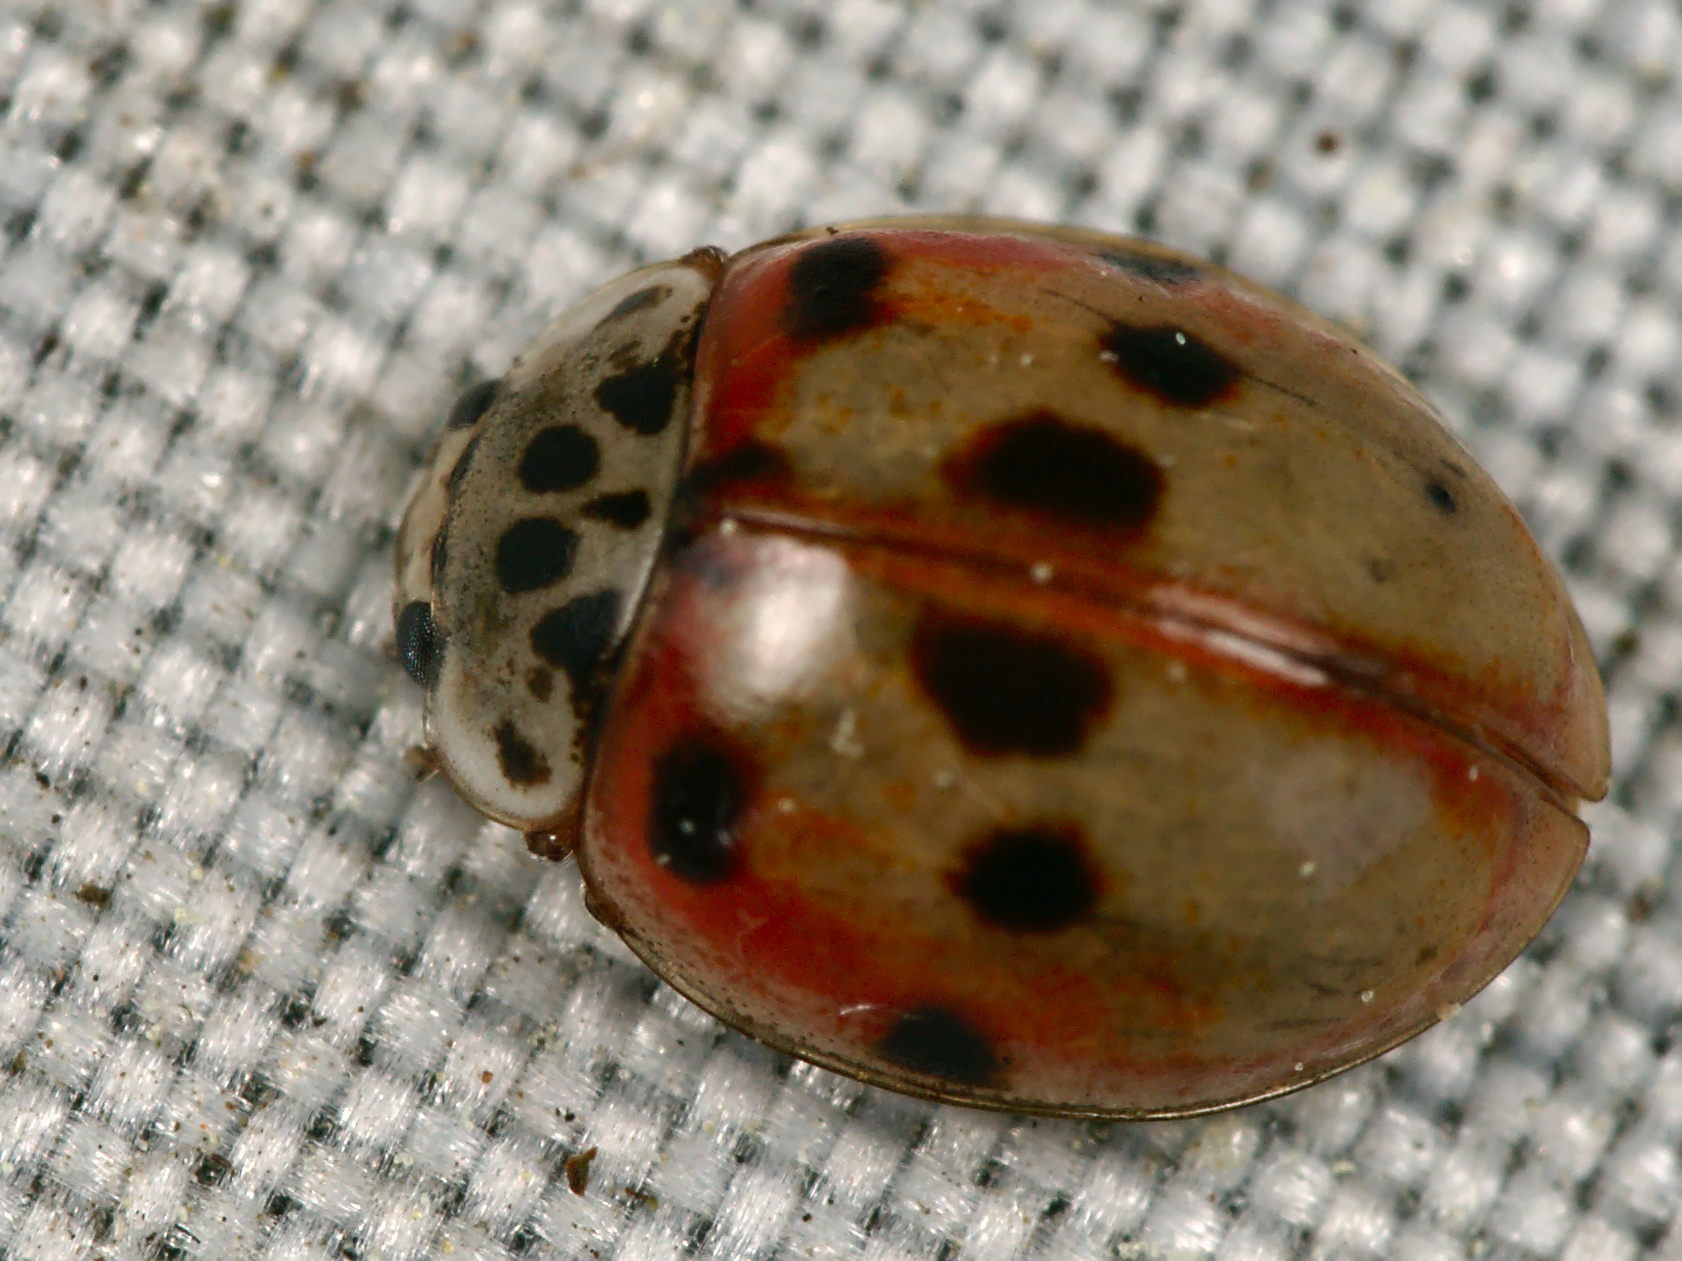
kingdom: Animalia
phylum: Arthropoda
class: Insecta
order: Coleoptera
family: Coccinellidae
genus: Adalia
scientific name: Adalia decempunctata
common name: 10-spot ladybird
